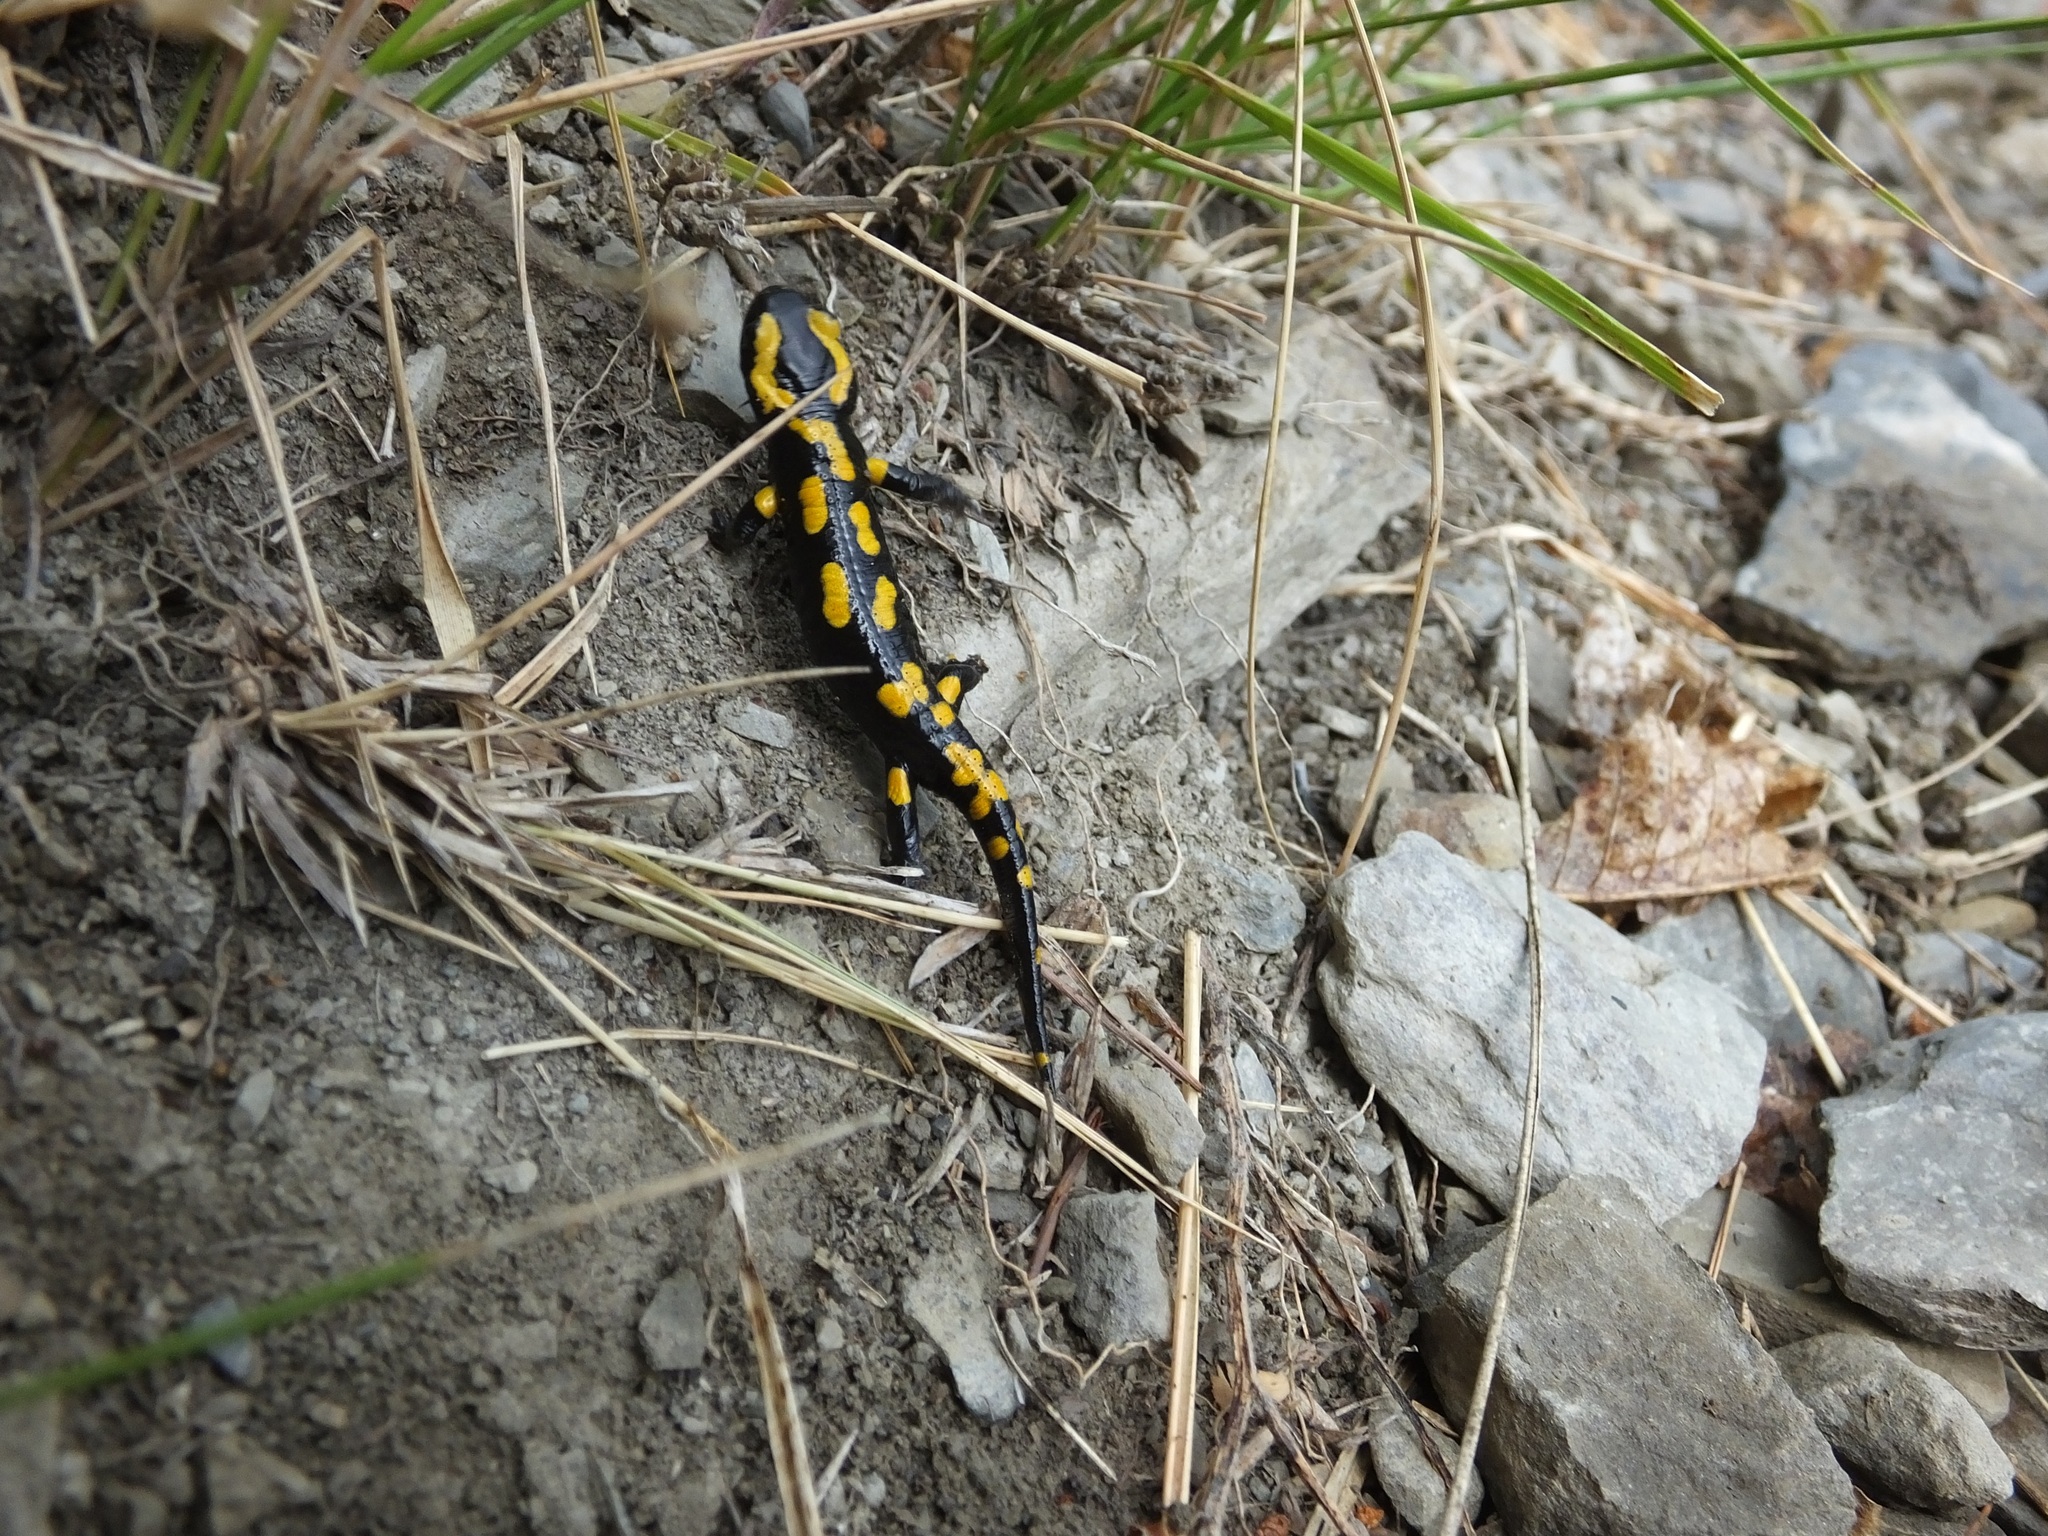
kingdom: Animalia
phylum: Chordata
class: Amphibia
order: Caudata
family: Salamandridae
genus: Salamandra
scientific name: Salamandra salamandra
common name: Fire salamander
